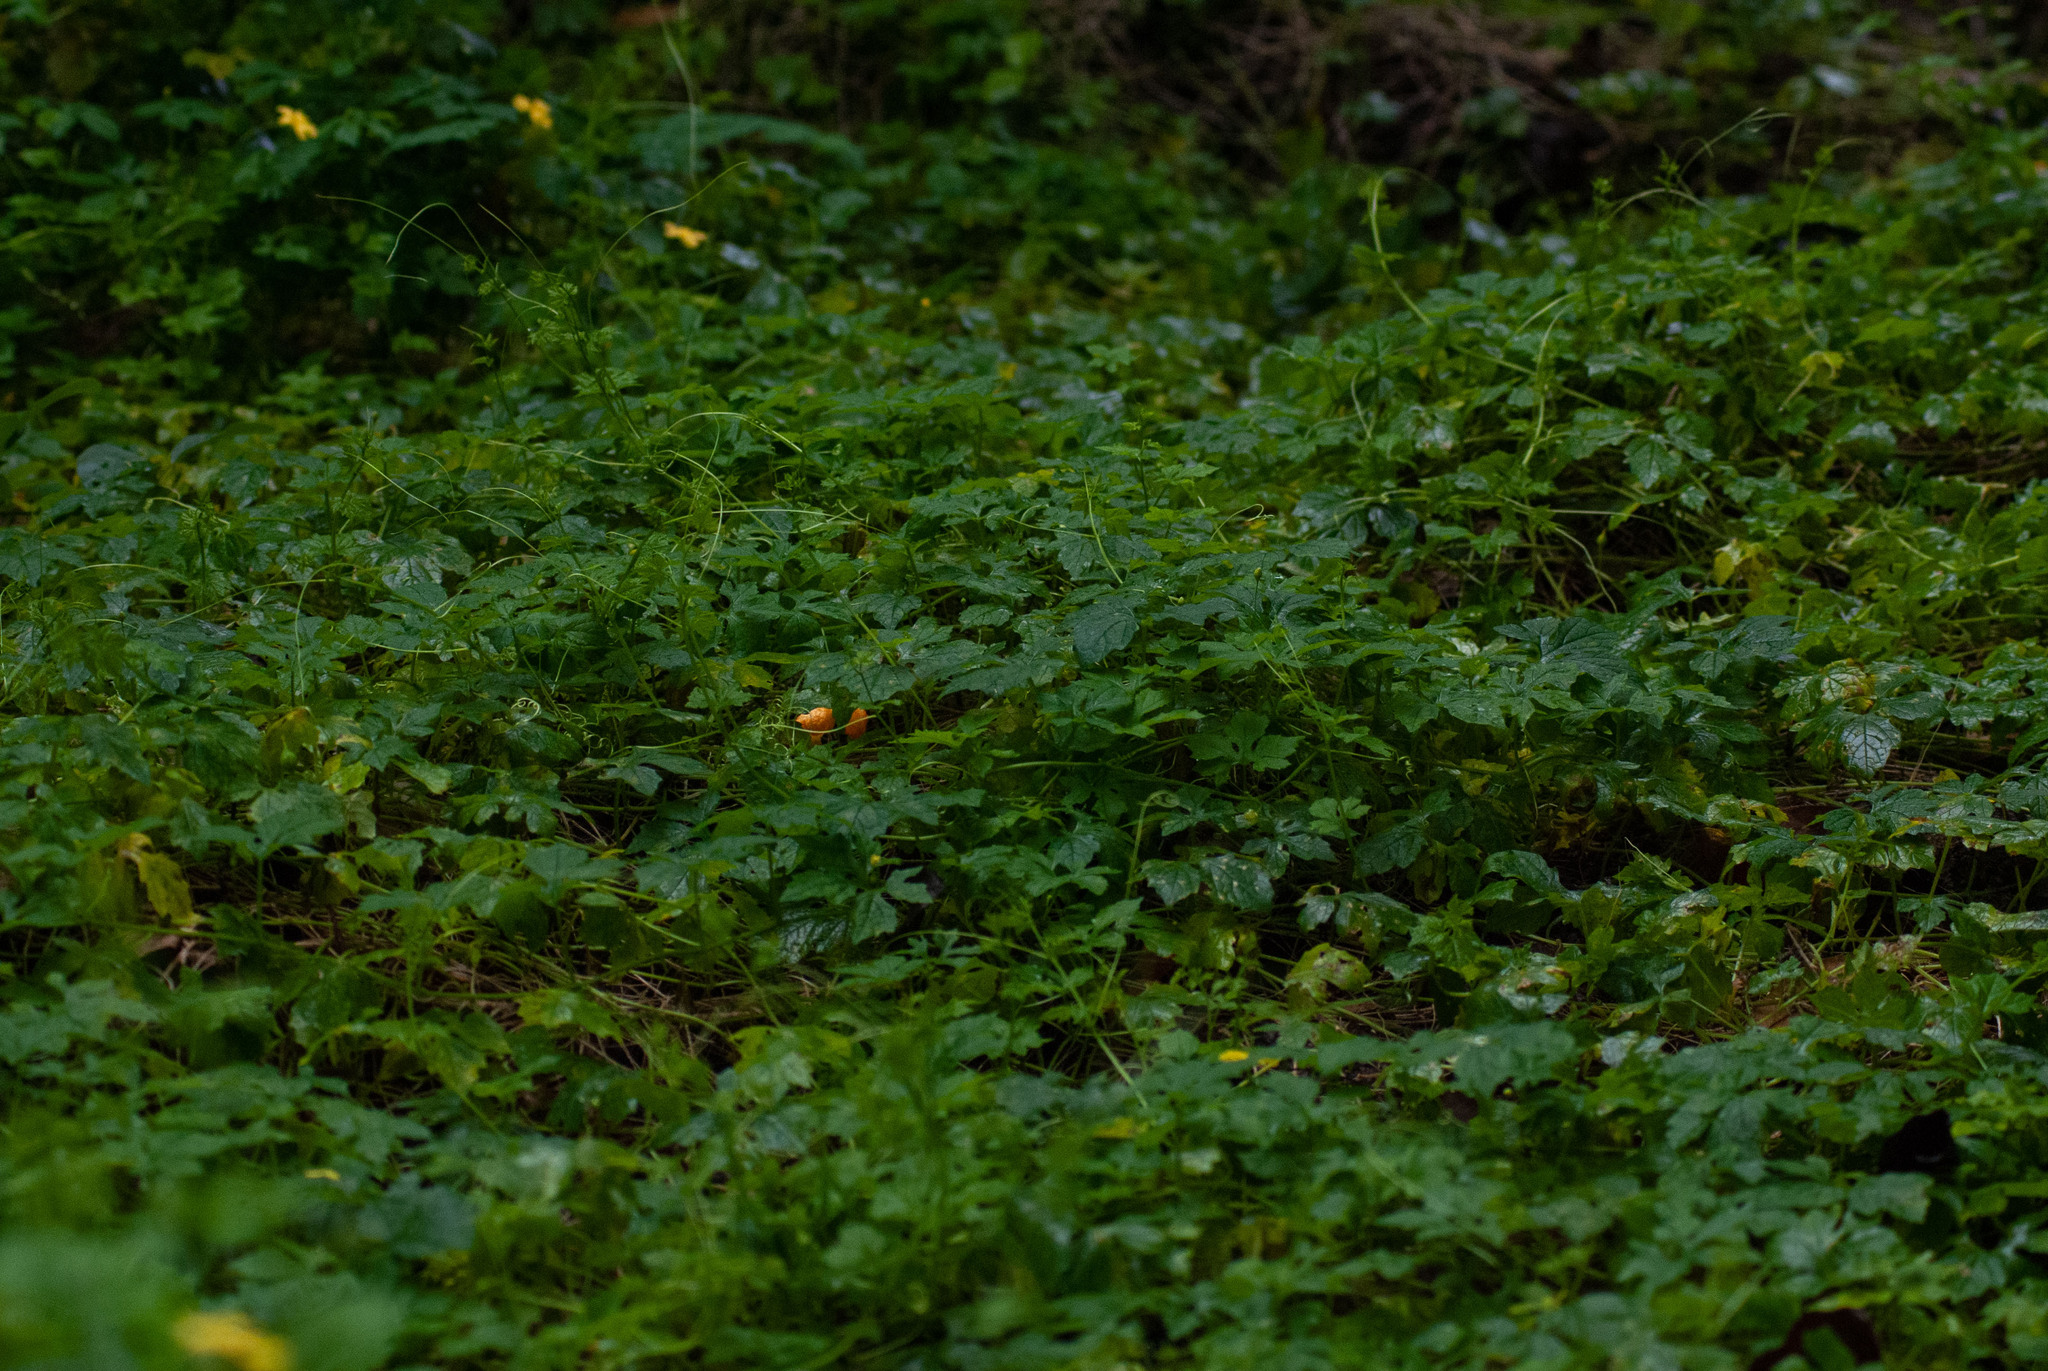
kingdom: Plantae
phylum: Tracheophyta
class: Magnoliopsida
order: Cucurbitales
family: Cucurbitaceae
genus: Momordica
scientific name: Momordica charantia
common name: Balsampear
